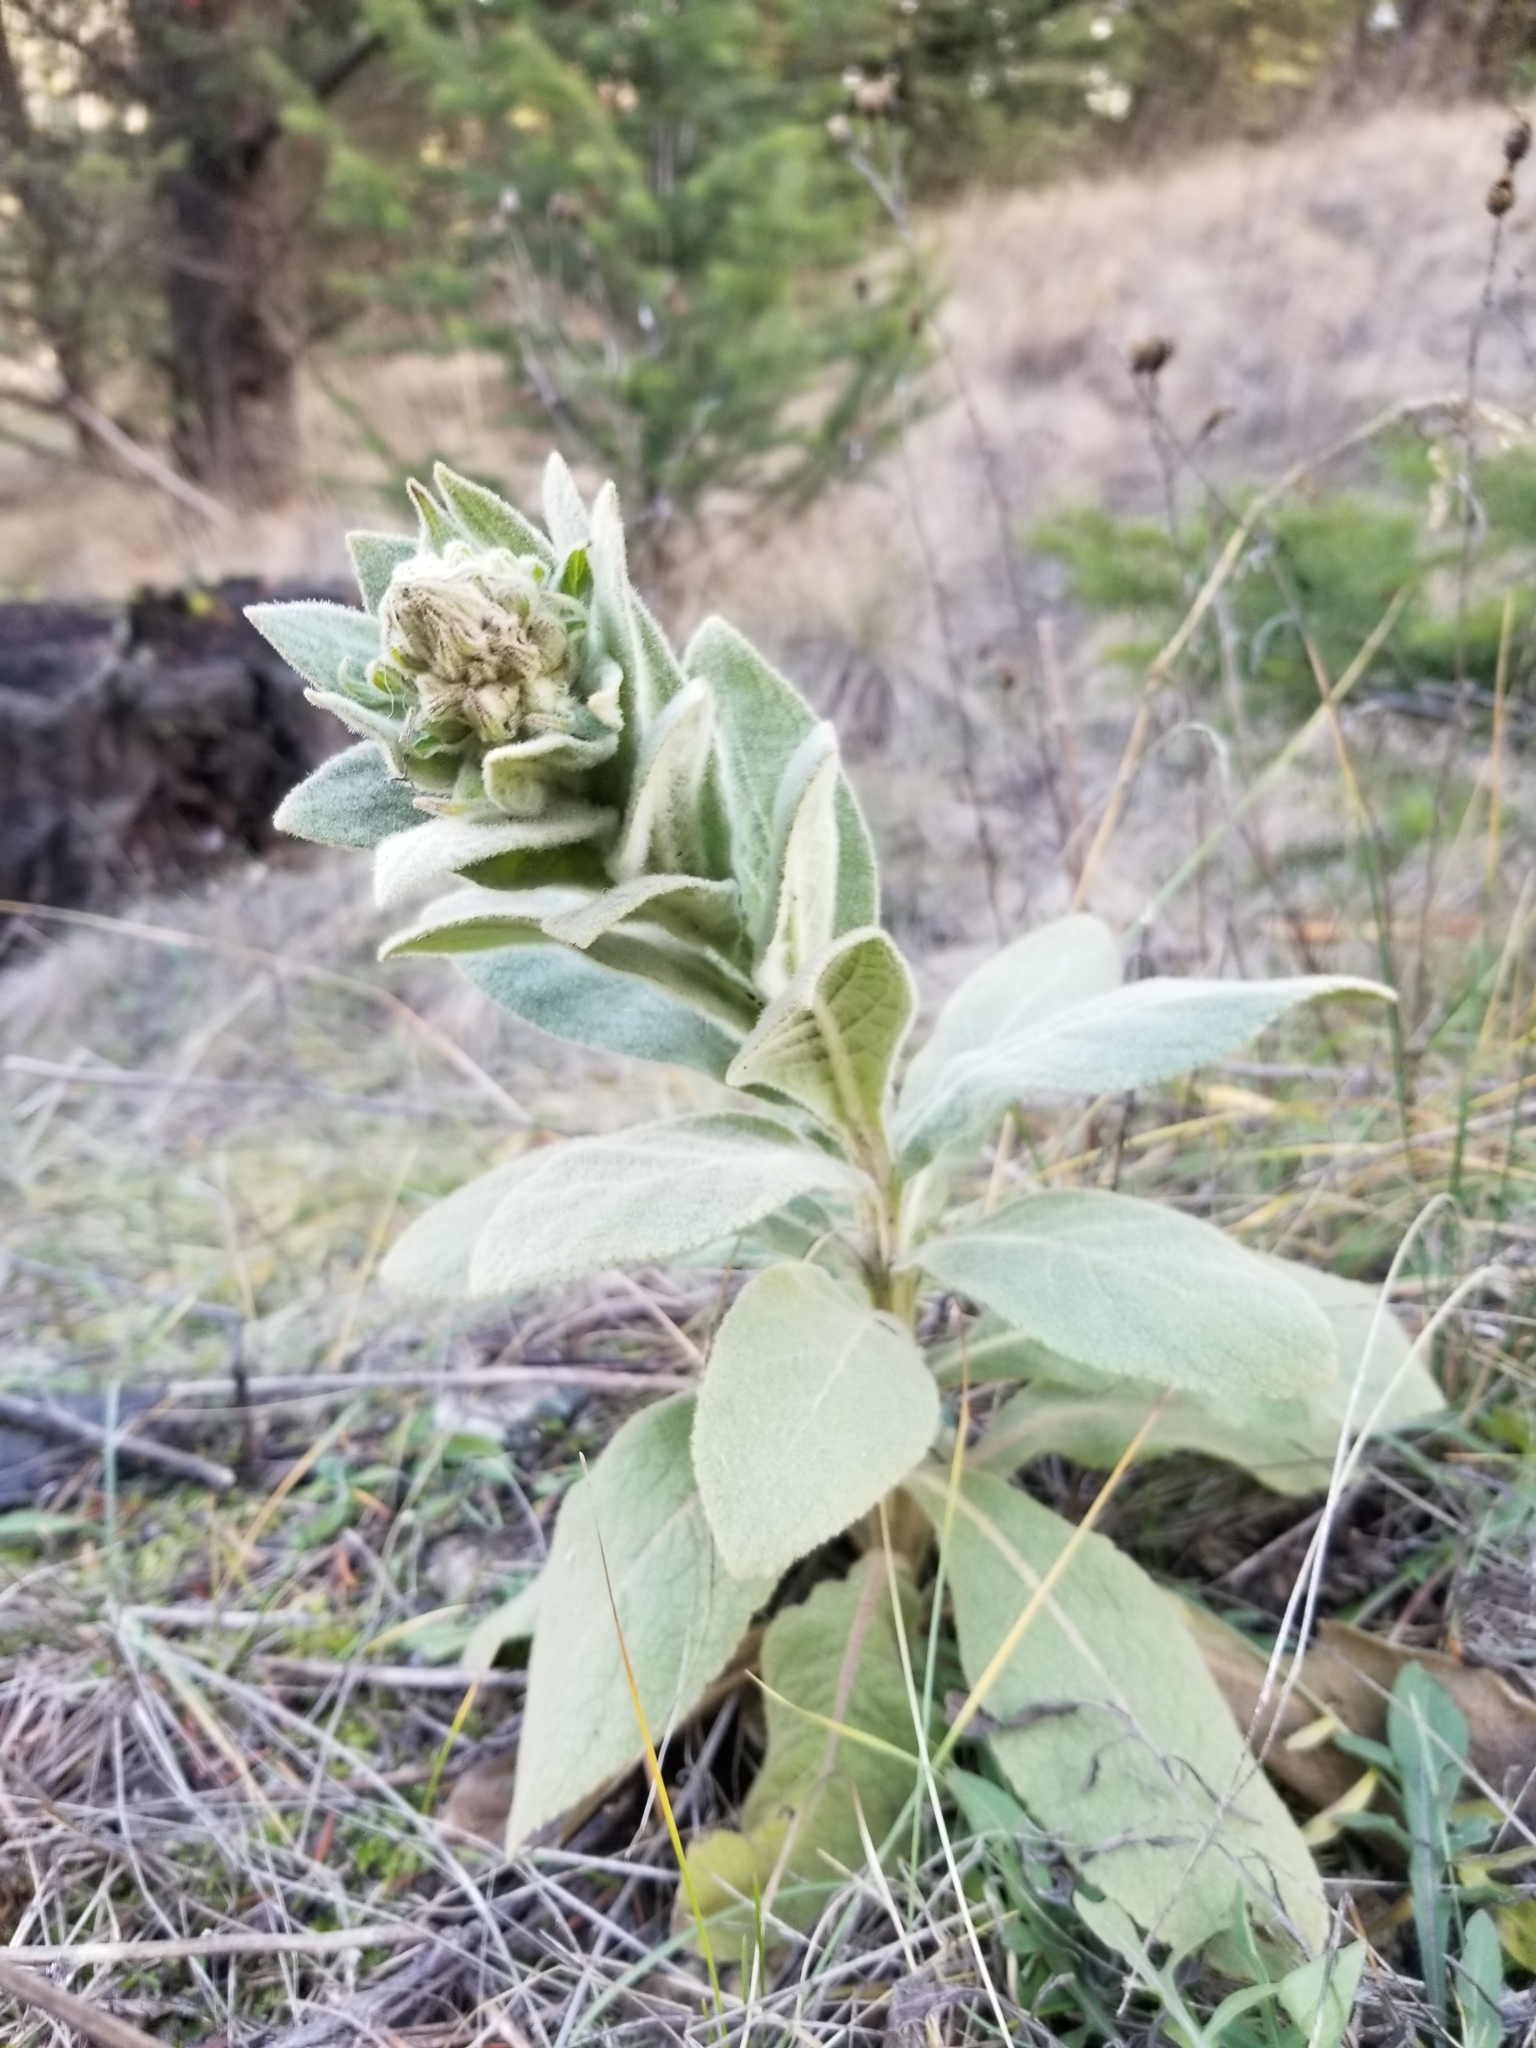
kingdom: Plantae
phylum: Tracheophyta
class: Magnoliopsida
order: Lamiales
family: Scrophulariaceae
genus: Verbascum
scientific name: Verbascum thapsus
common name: Common mullein
